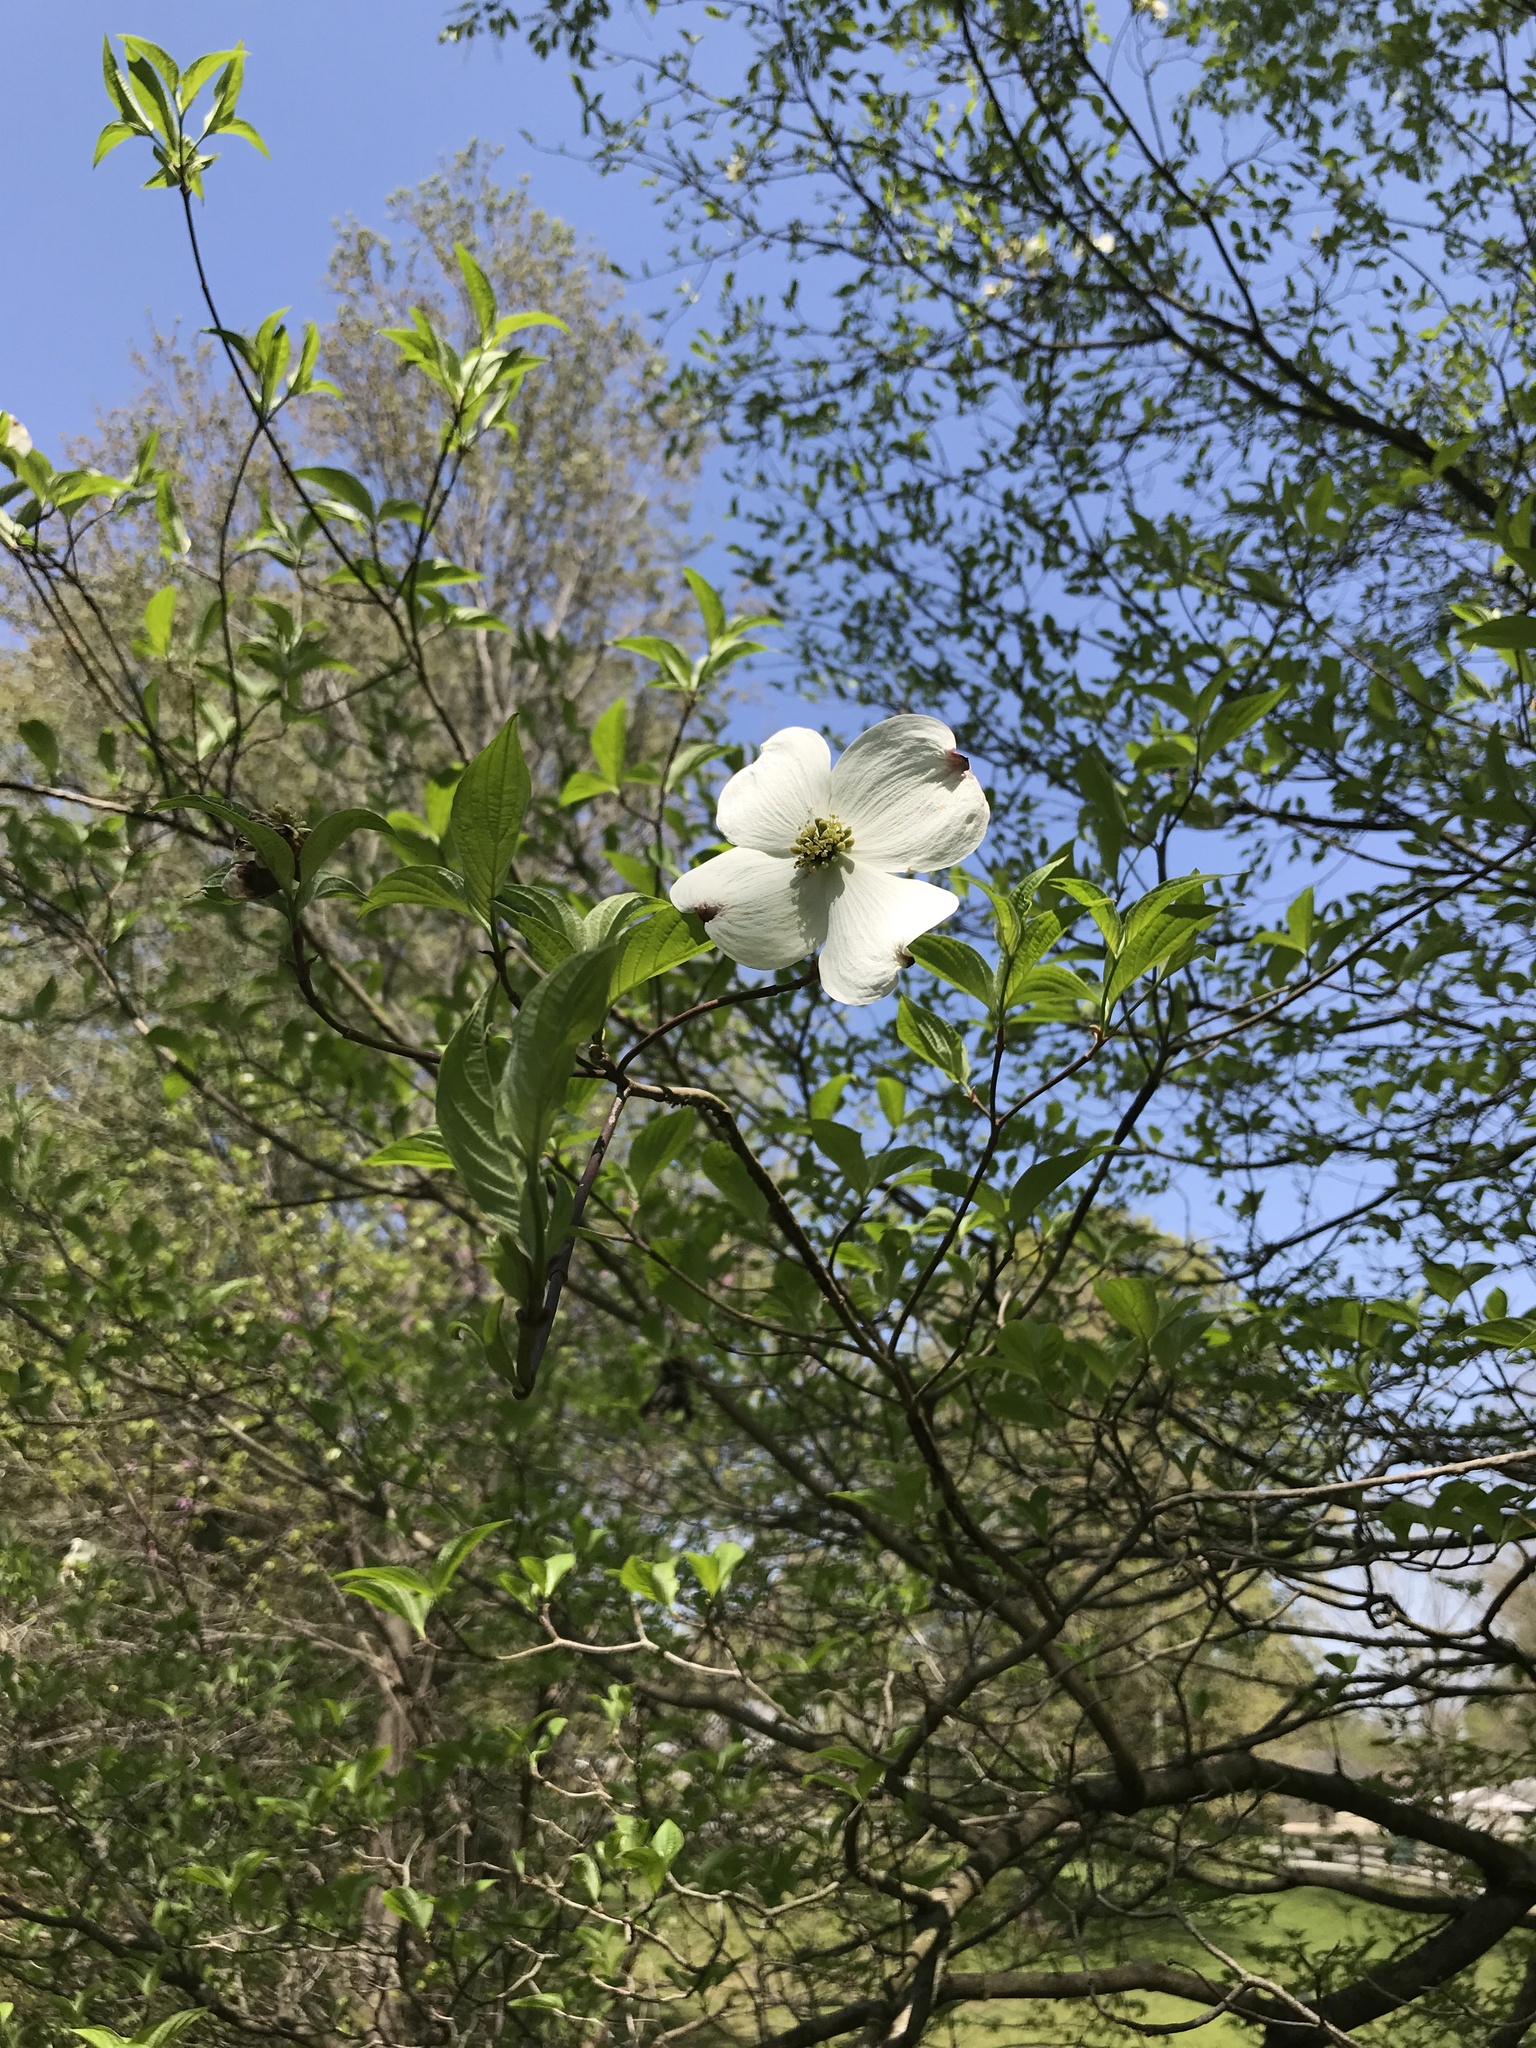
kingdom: Plantae
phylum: Tracheophyta
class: Magnoliopsida
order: Cornales
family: Cornaceae
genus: Cornus
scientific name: Cornus florida
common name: Flowering dogwood
